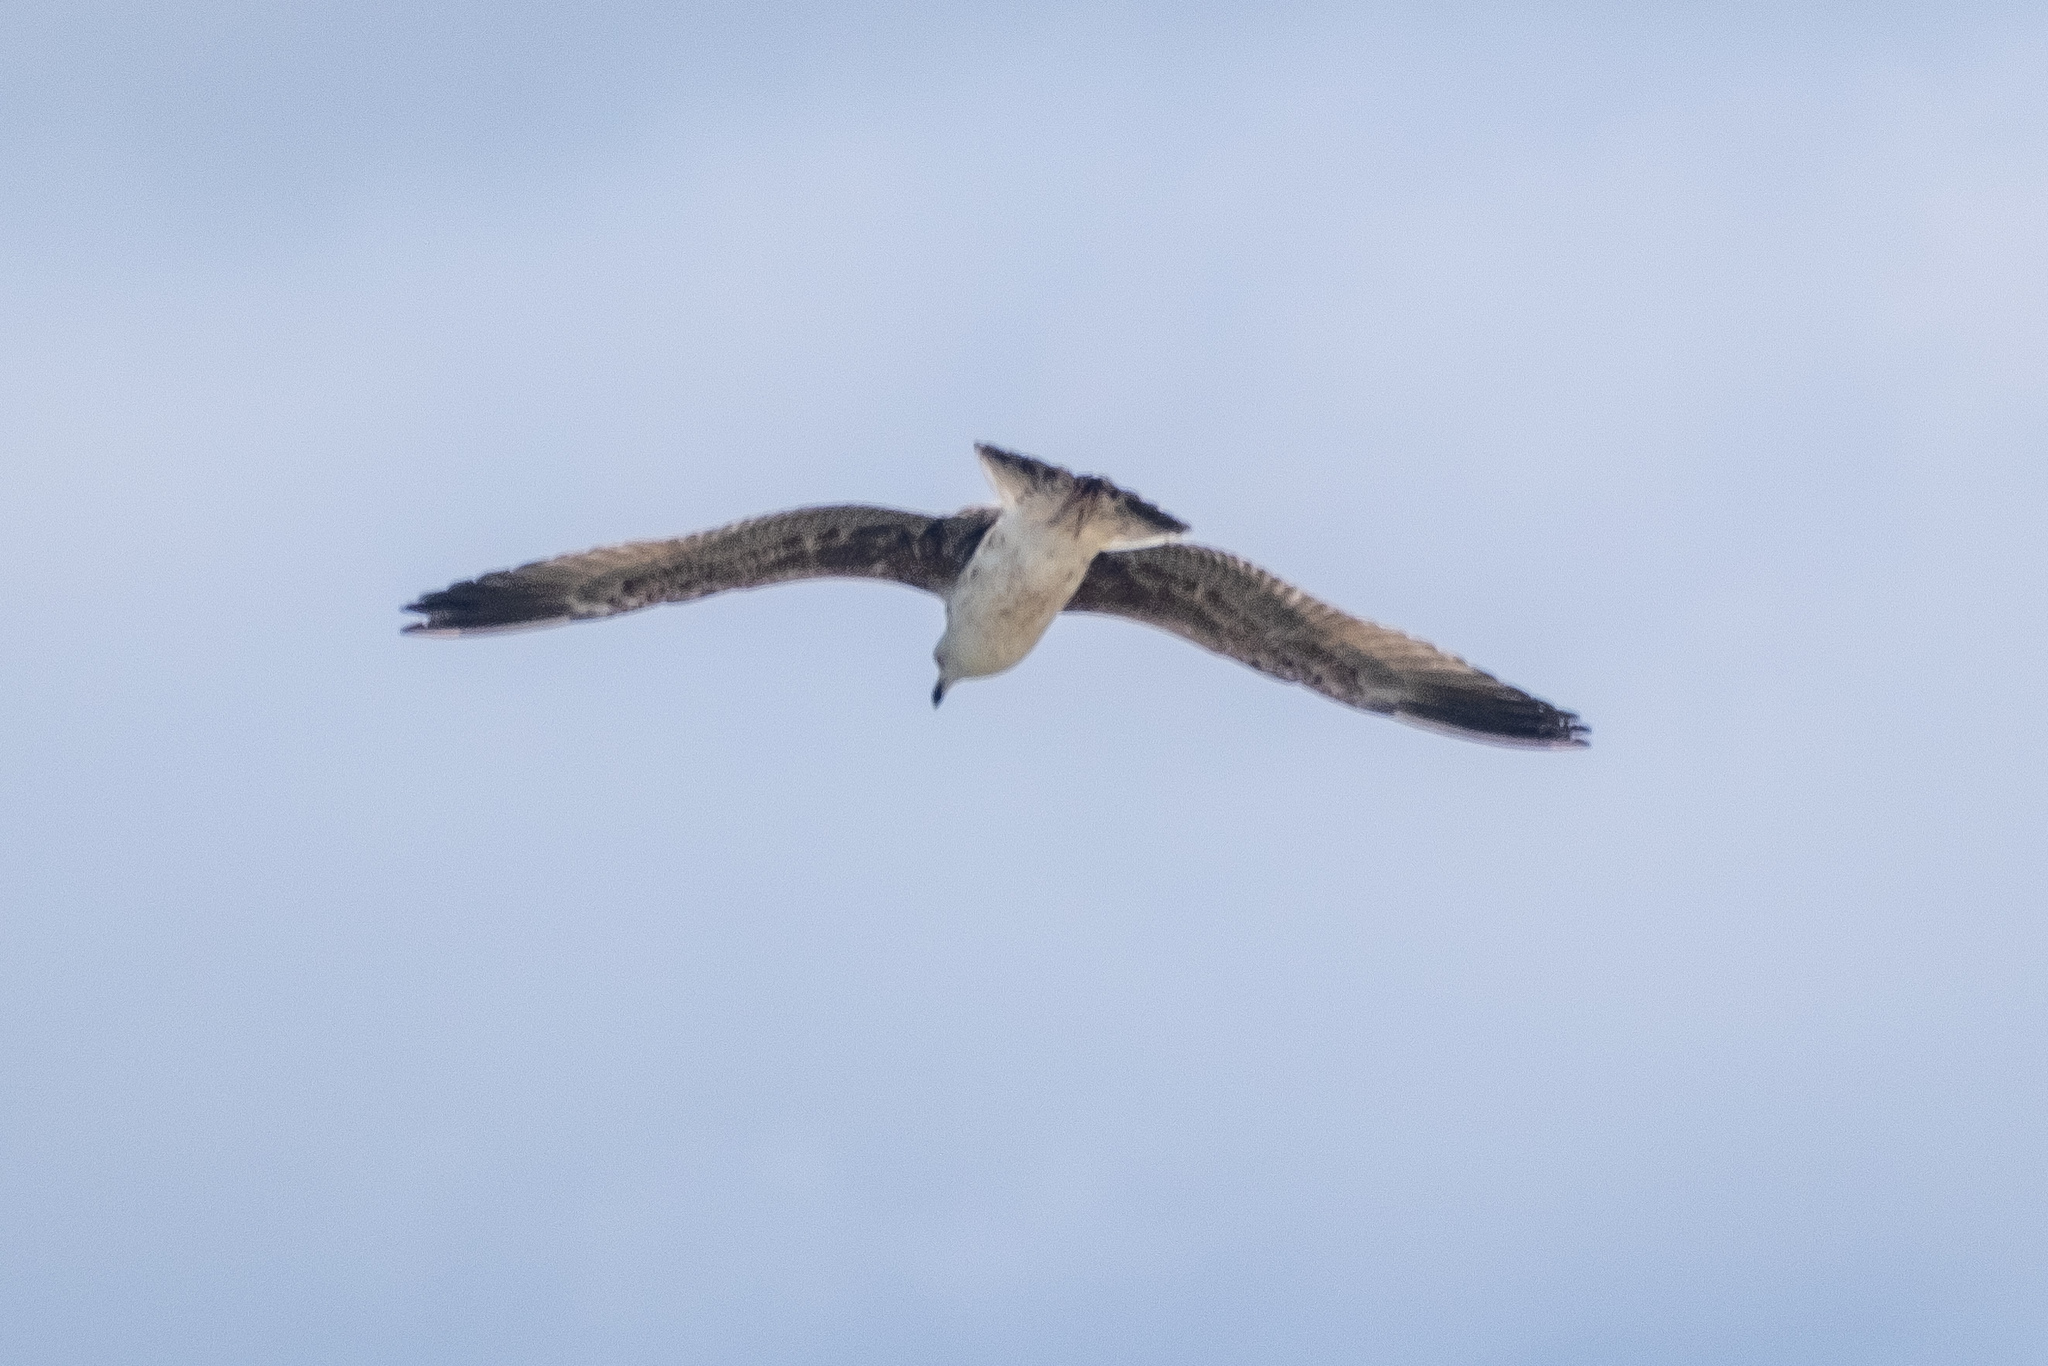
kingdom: Animalia
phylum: Chordata
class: Aves
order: Charadriiformes
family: Laridae
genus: Larus
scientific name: Larus michahellis
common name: Yellow-legged gull
